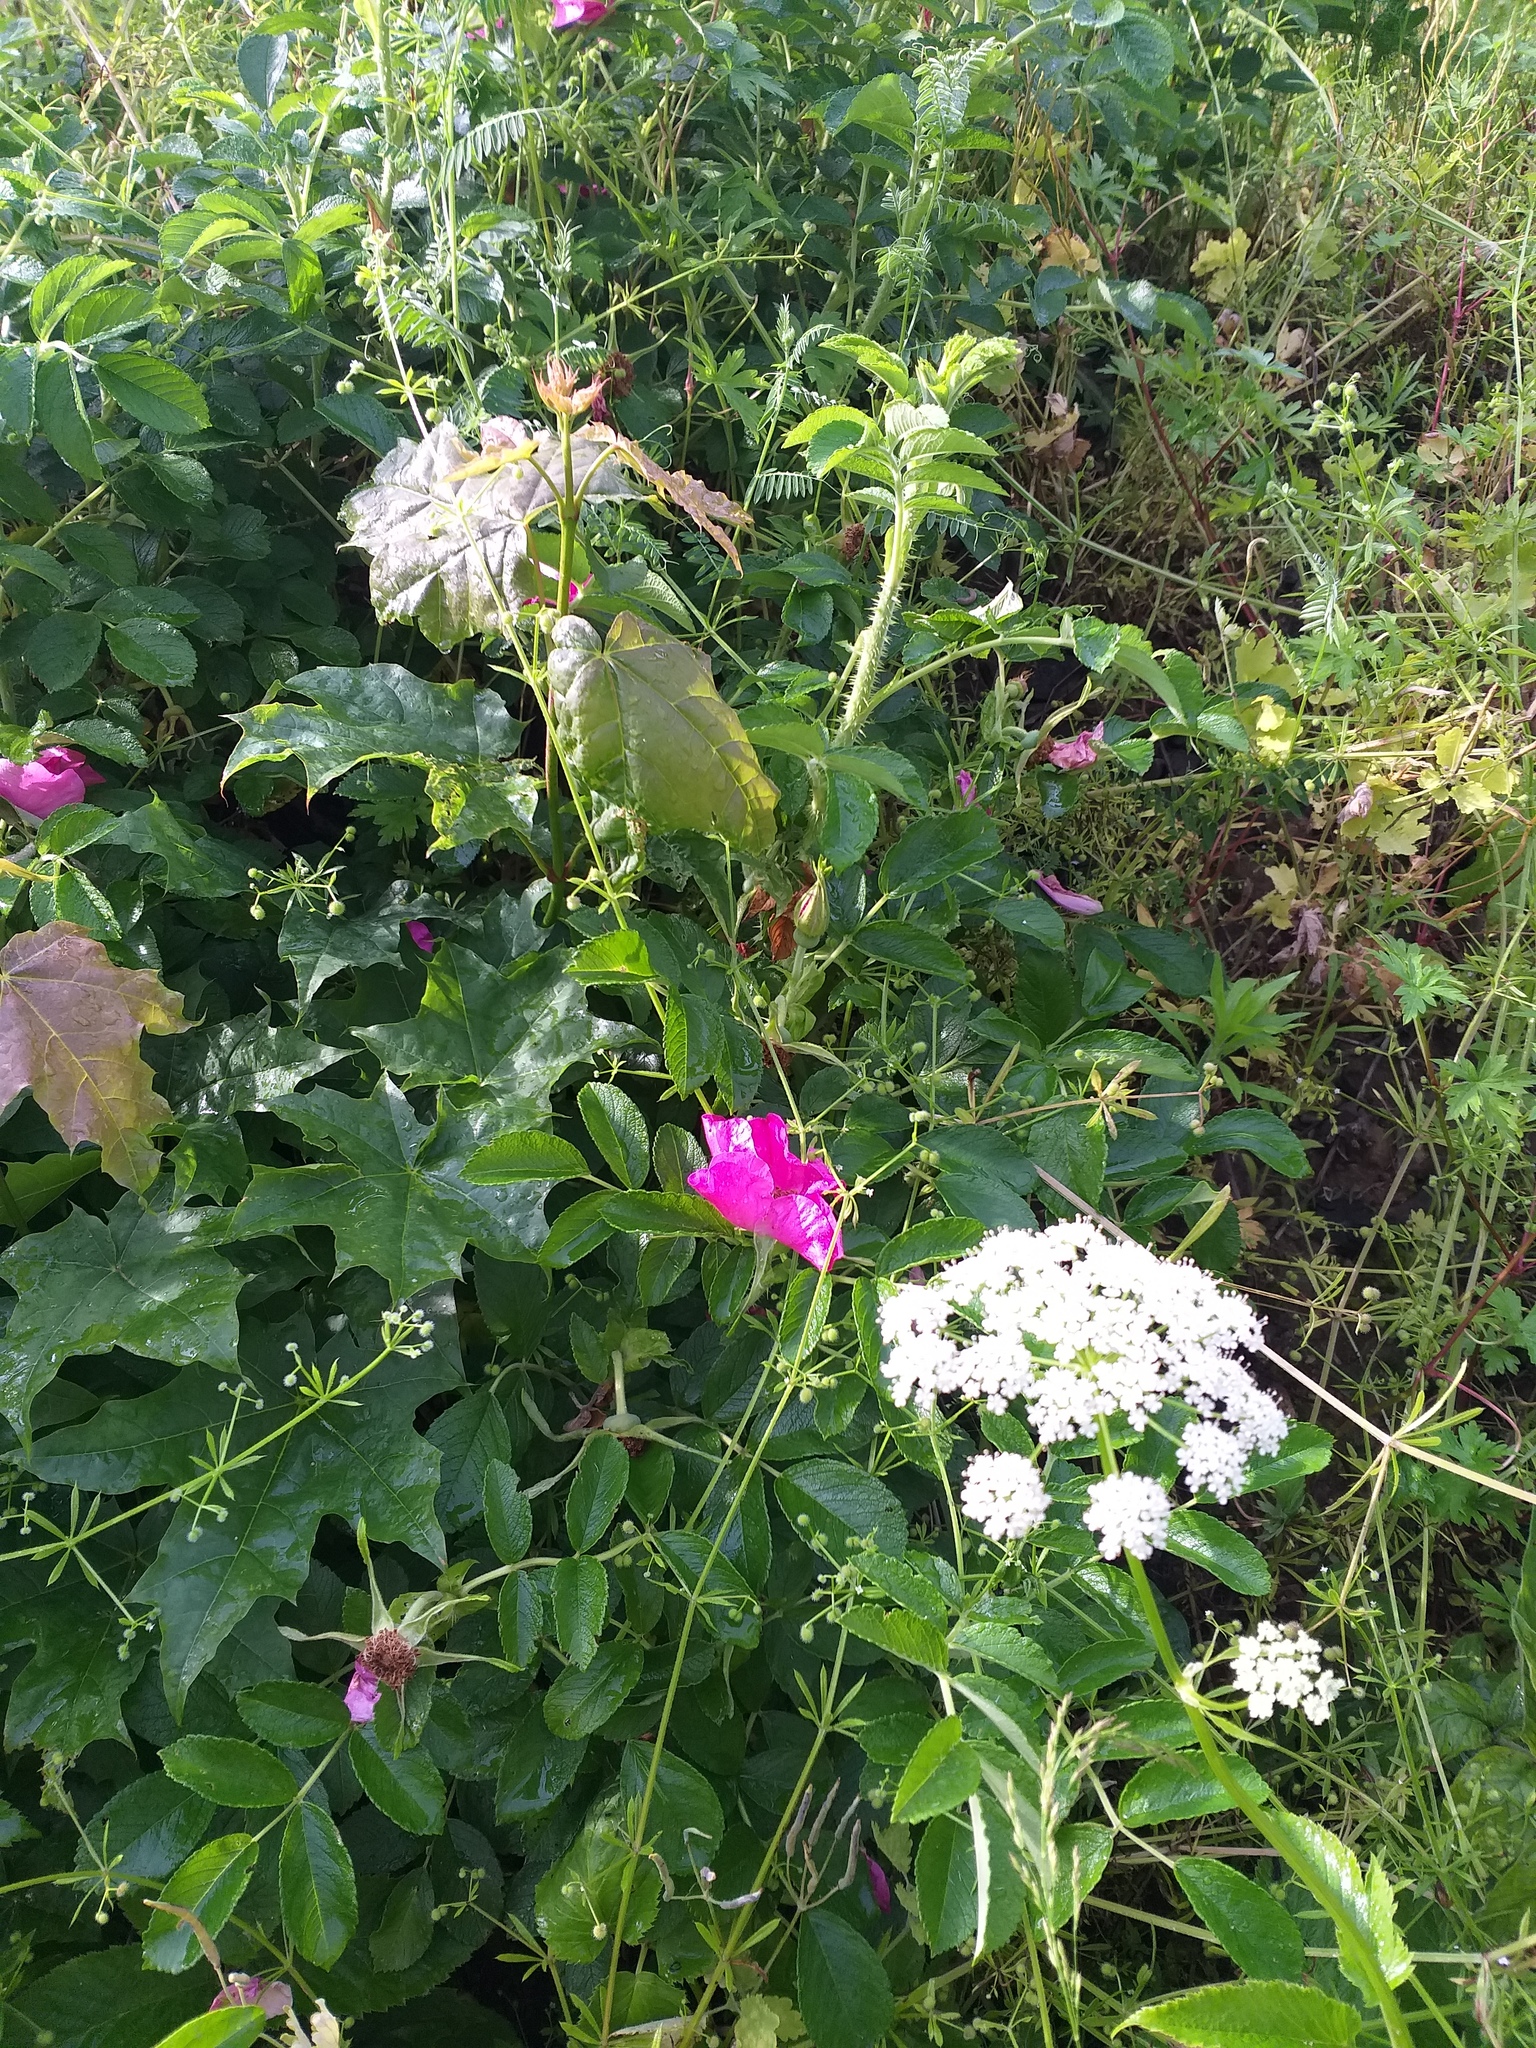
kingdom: Plantae
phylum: Tracheophyta
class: Magnoliopsida
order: Rosales
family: Rosaceae
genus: Rosa
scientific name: Rosa rugosa
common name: Japanese rose
